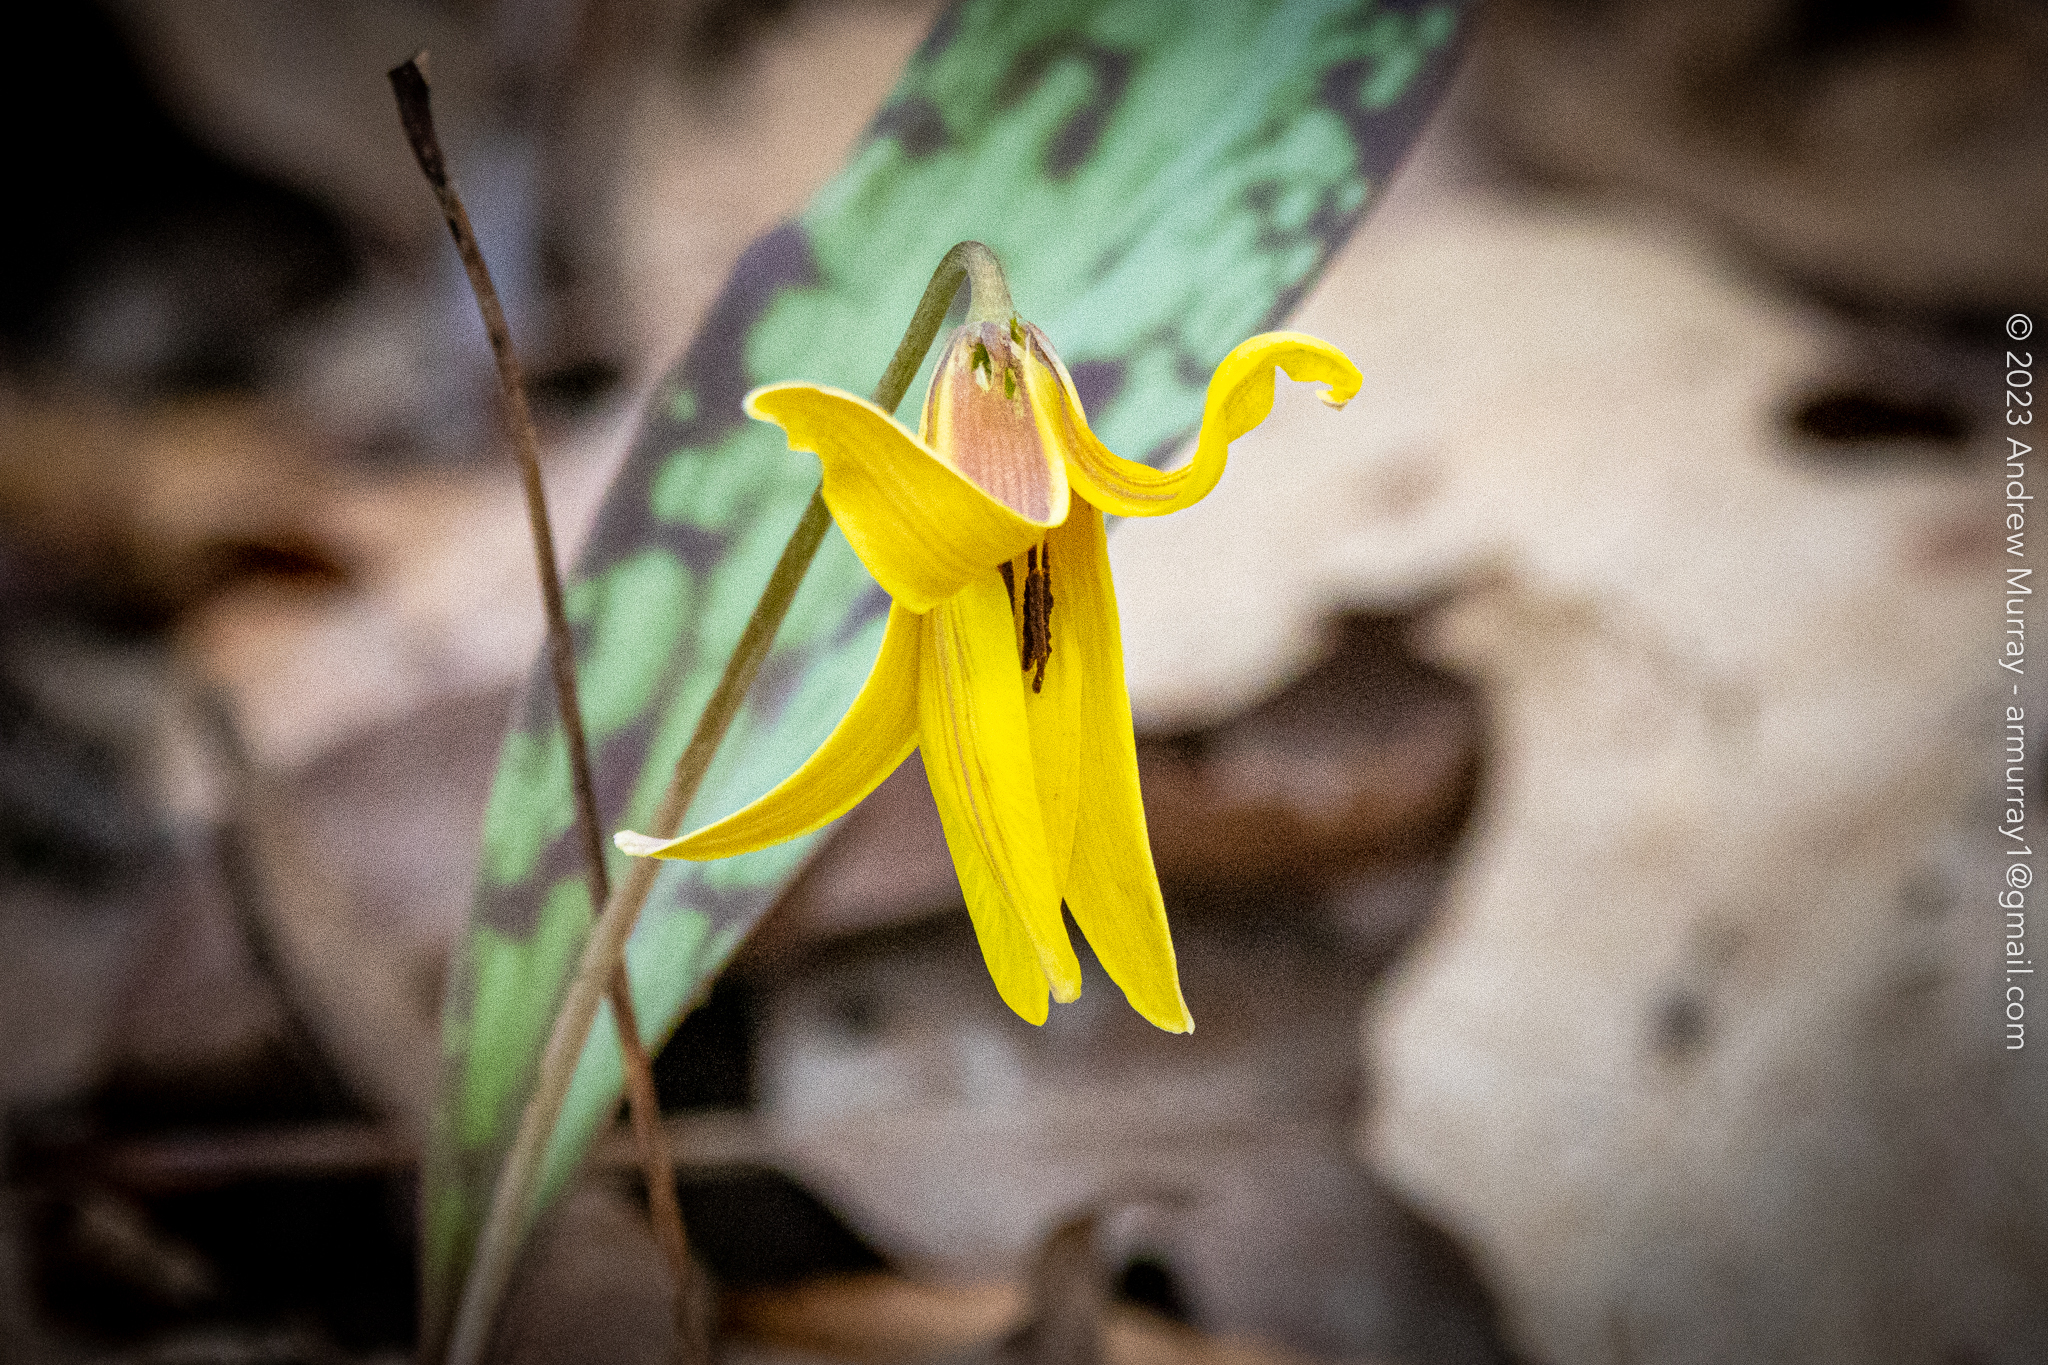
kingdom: Plantae
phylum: Tracheophyta
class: Liliopsida
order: Liliales
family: Liliaceae
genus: Erythronium
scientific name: Erythronium americanum
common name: Yellow adder's-tongue
